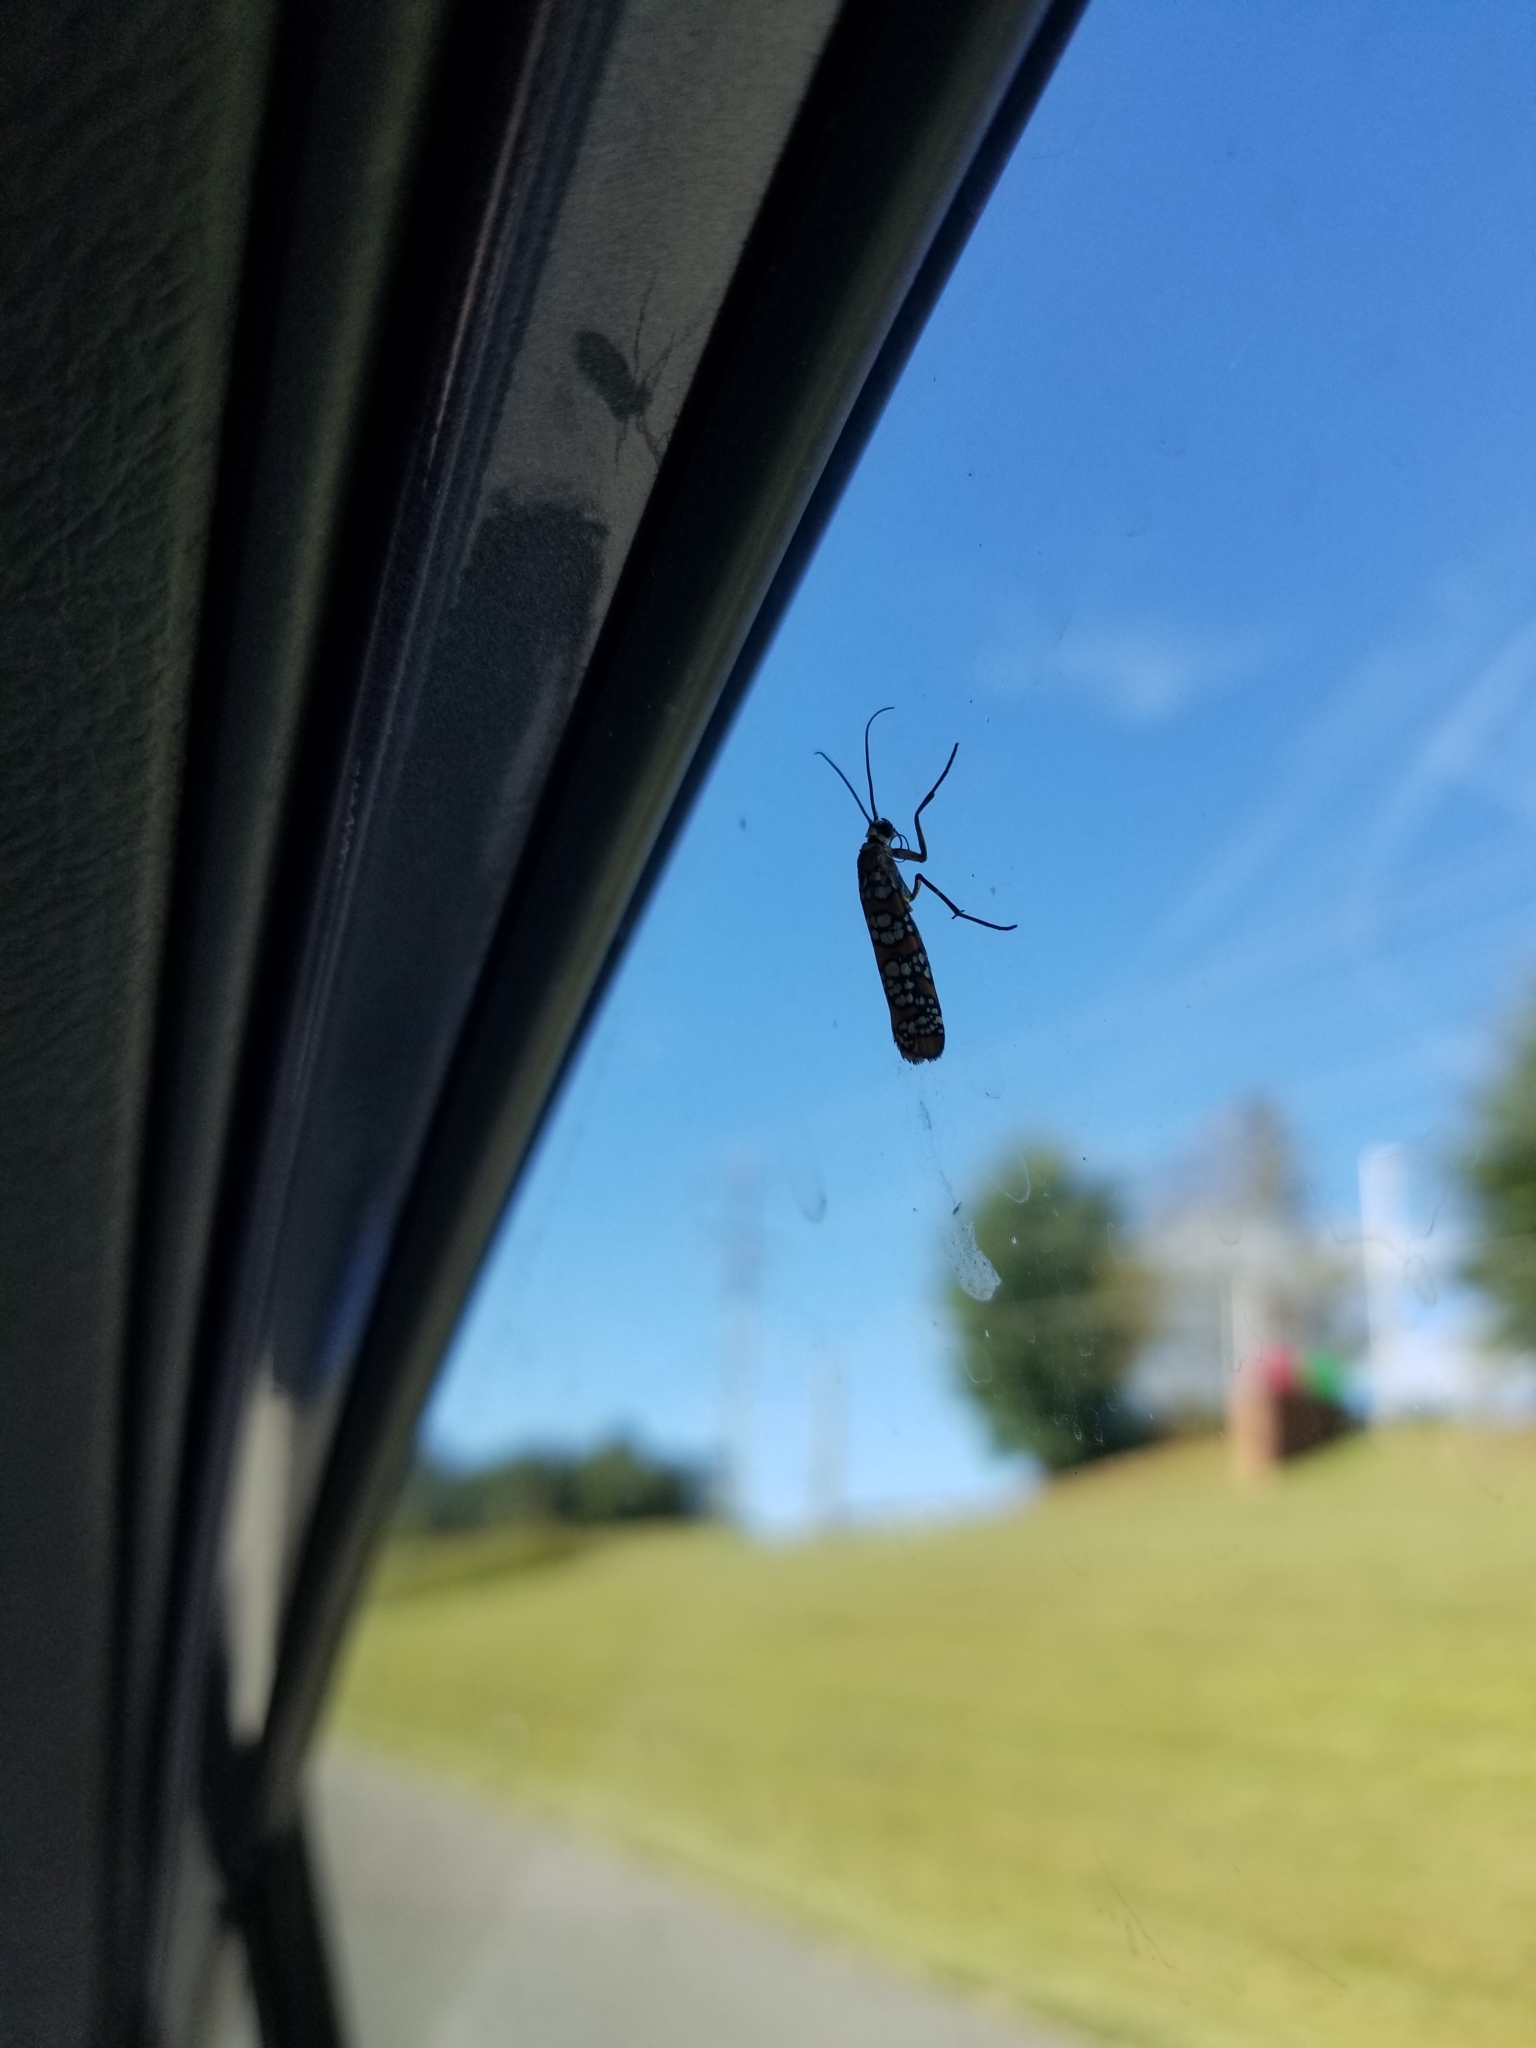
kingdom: Animalia
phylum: Arthropoda
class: Insecta
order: Lepidoptera
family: Attevidae
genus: Atteva
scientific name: Atteva punctella
